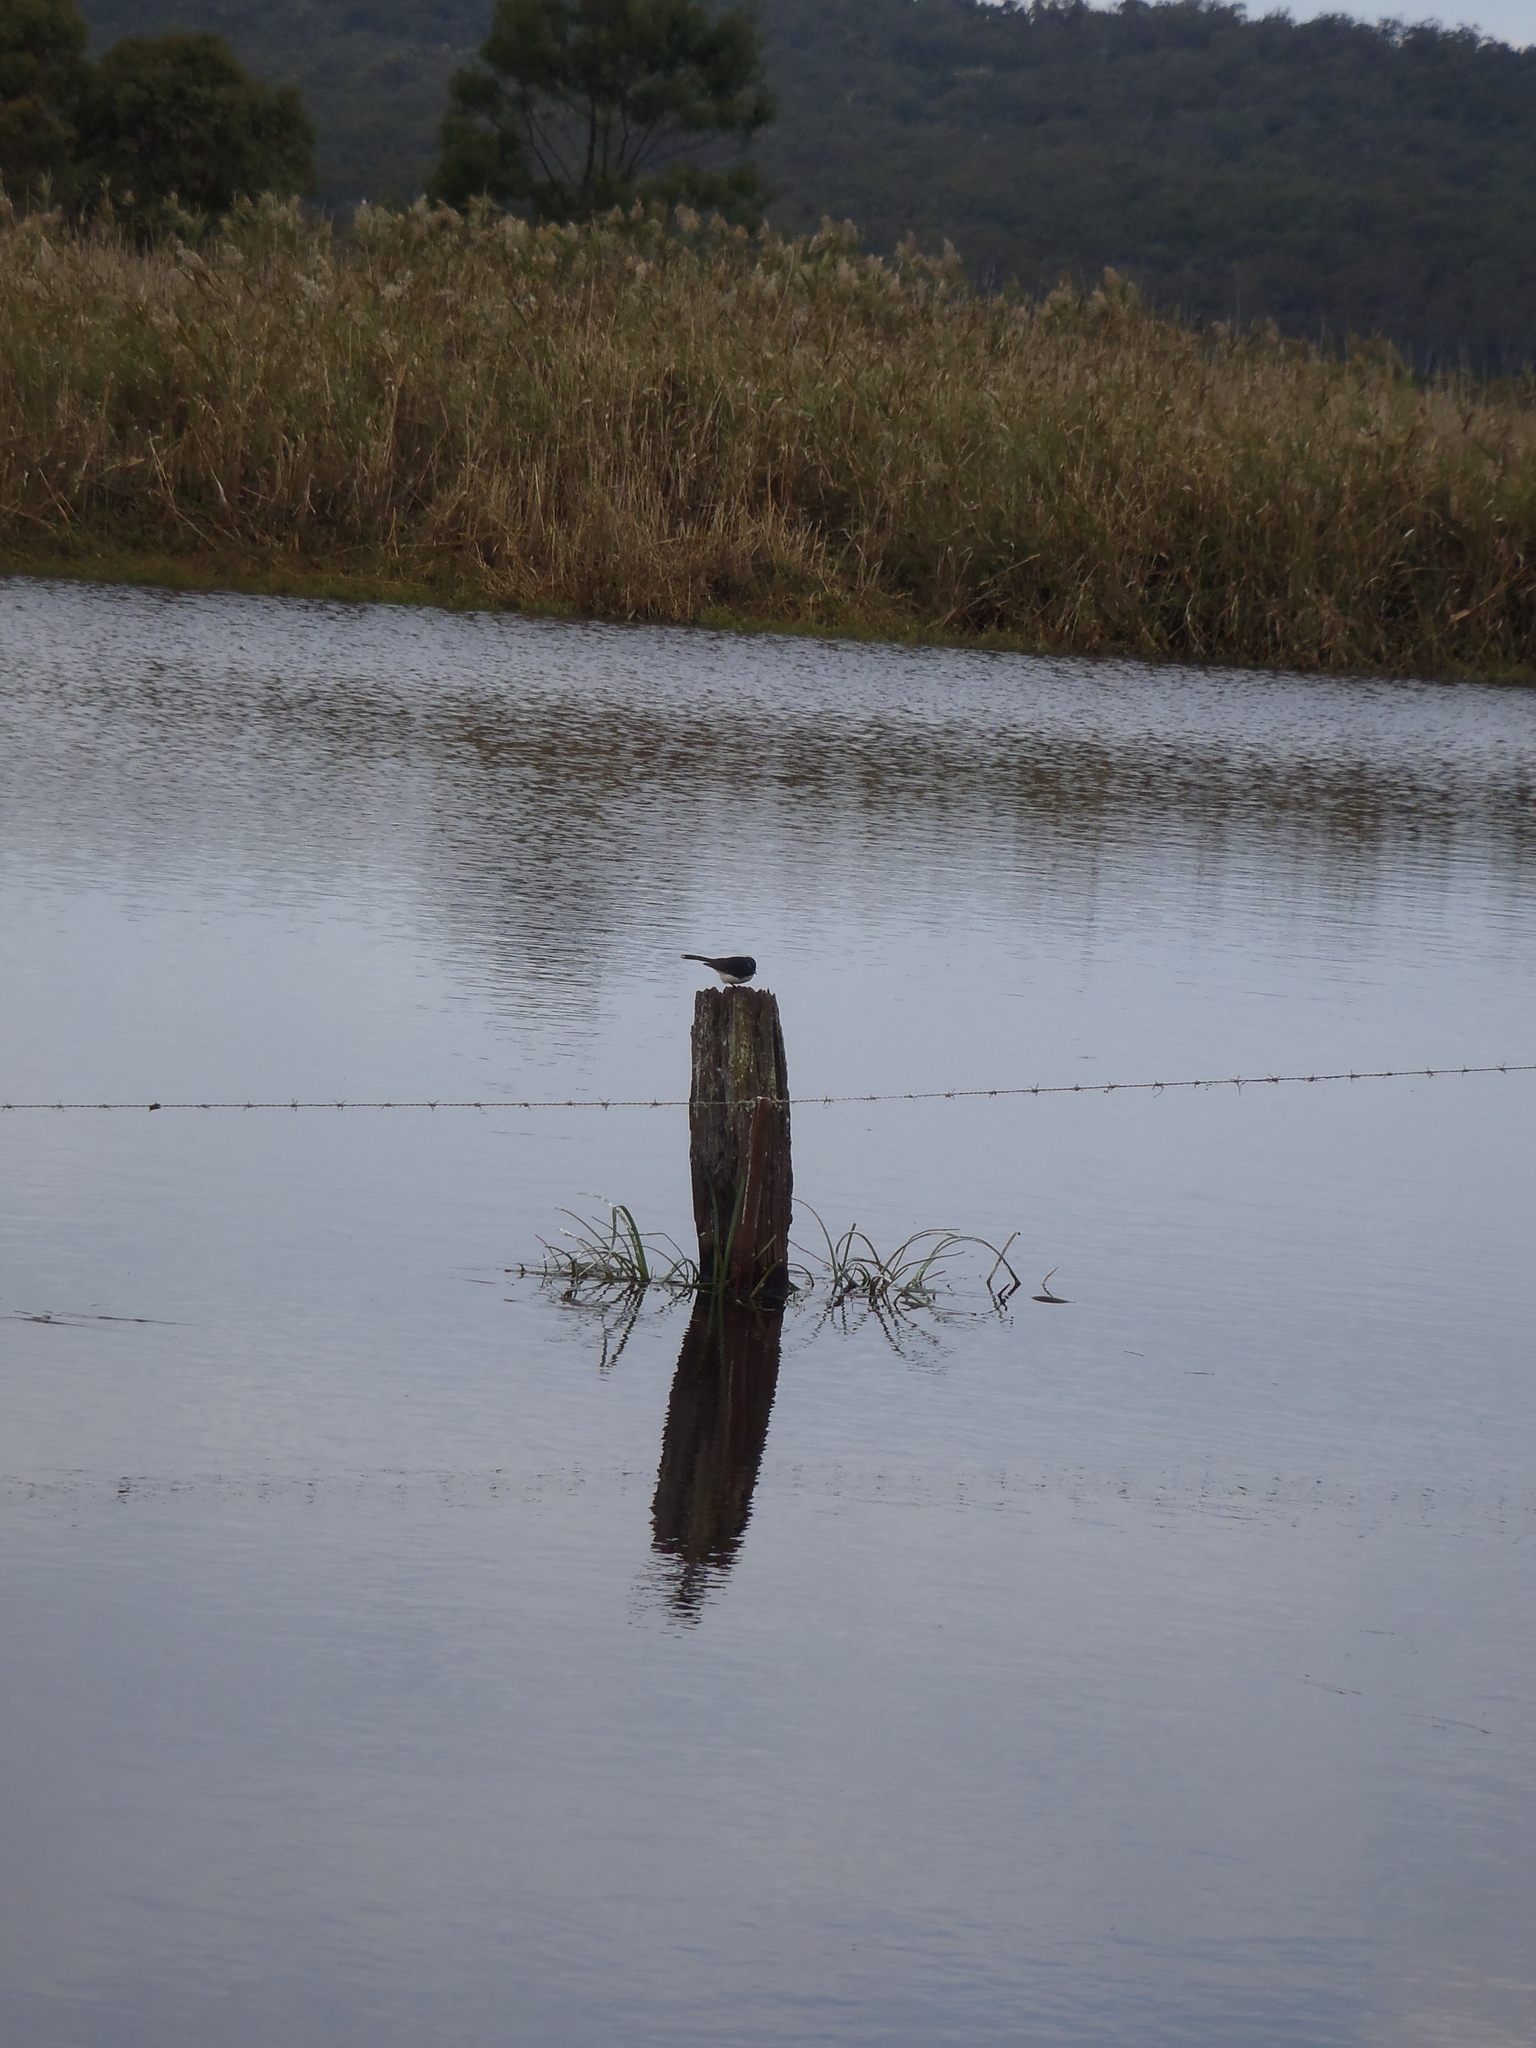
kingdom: Animalia
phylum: Chordata
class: Aves
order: Passeriformes
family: Rhipiduridae
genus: Rhipidura
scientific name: Rhipidura leucophrys
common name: Willie wagtail
